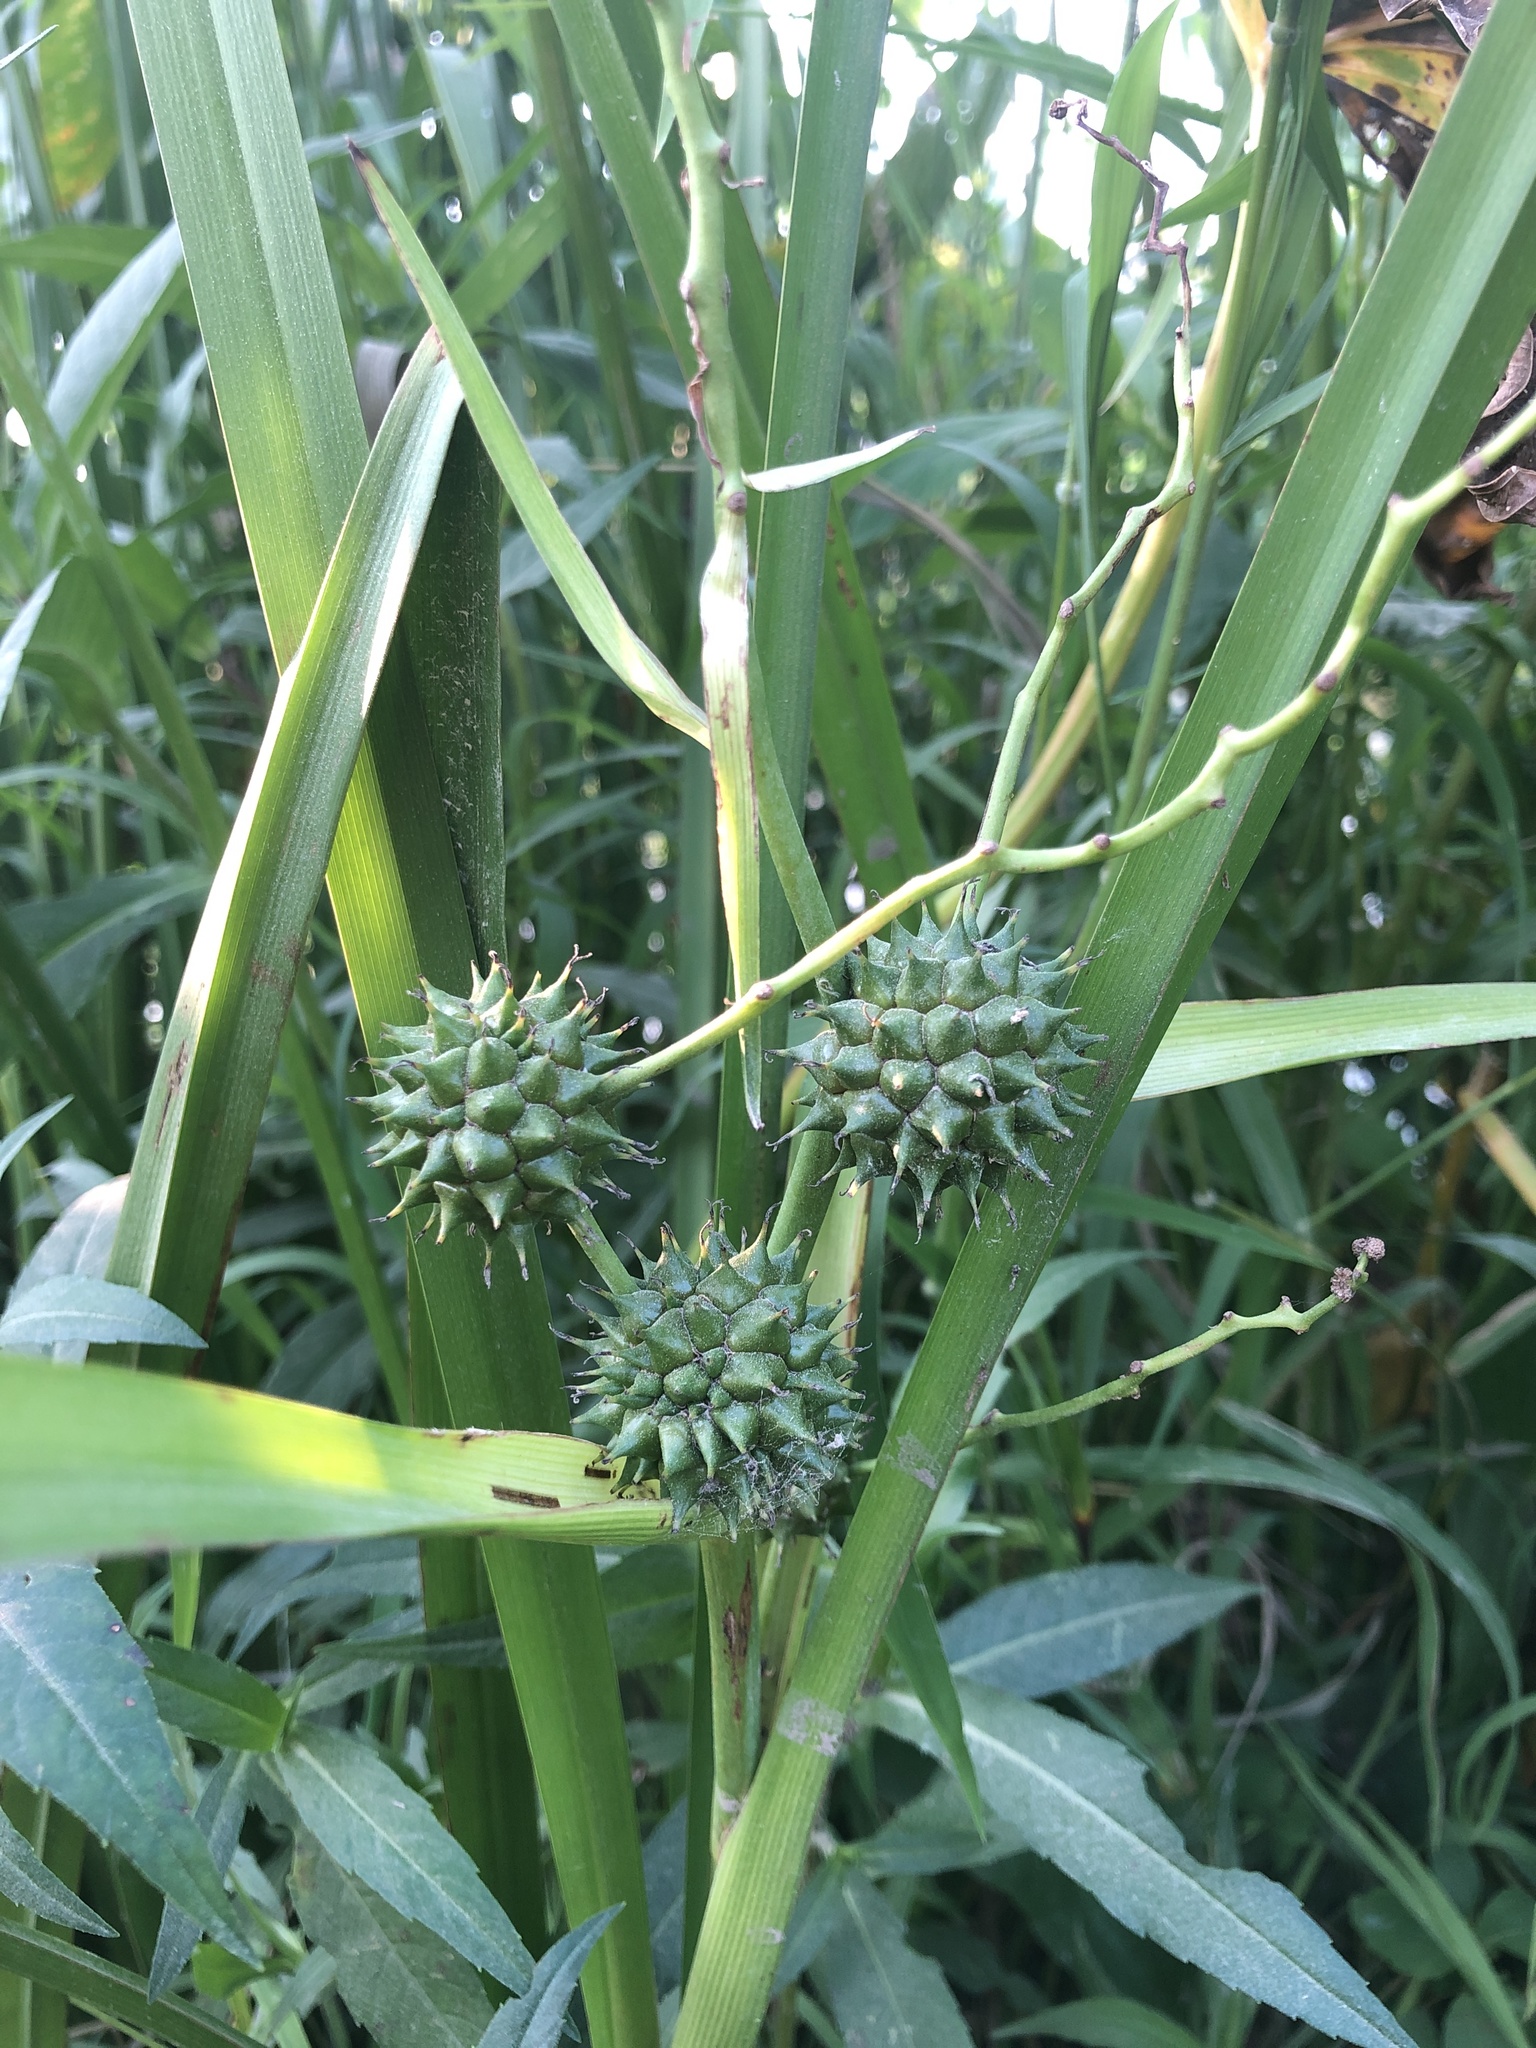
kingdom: Plantae
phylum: Tracheophyta
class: Liliopsida
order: Poales
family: Typhaceae
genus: Sparganium
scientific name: Sparganium eurycarpum
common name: Broad-fruited burreed
